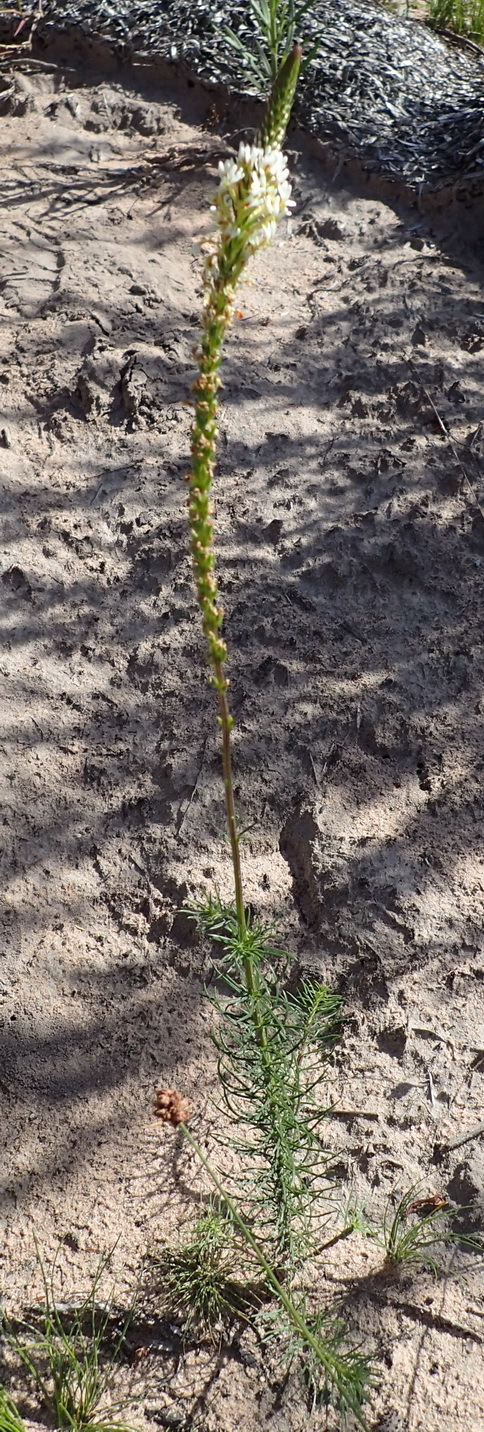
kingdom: Plantae
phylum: Tracheophyta
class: Magnoliopsida
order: Lamiales
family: Scrophulariaceae
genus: Hebenstretia
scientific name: Hebenstretia integrifolia
